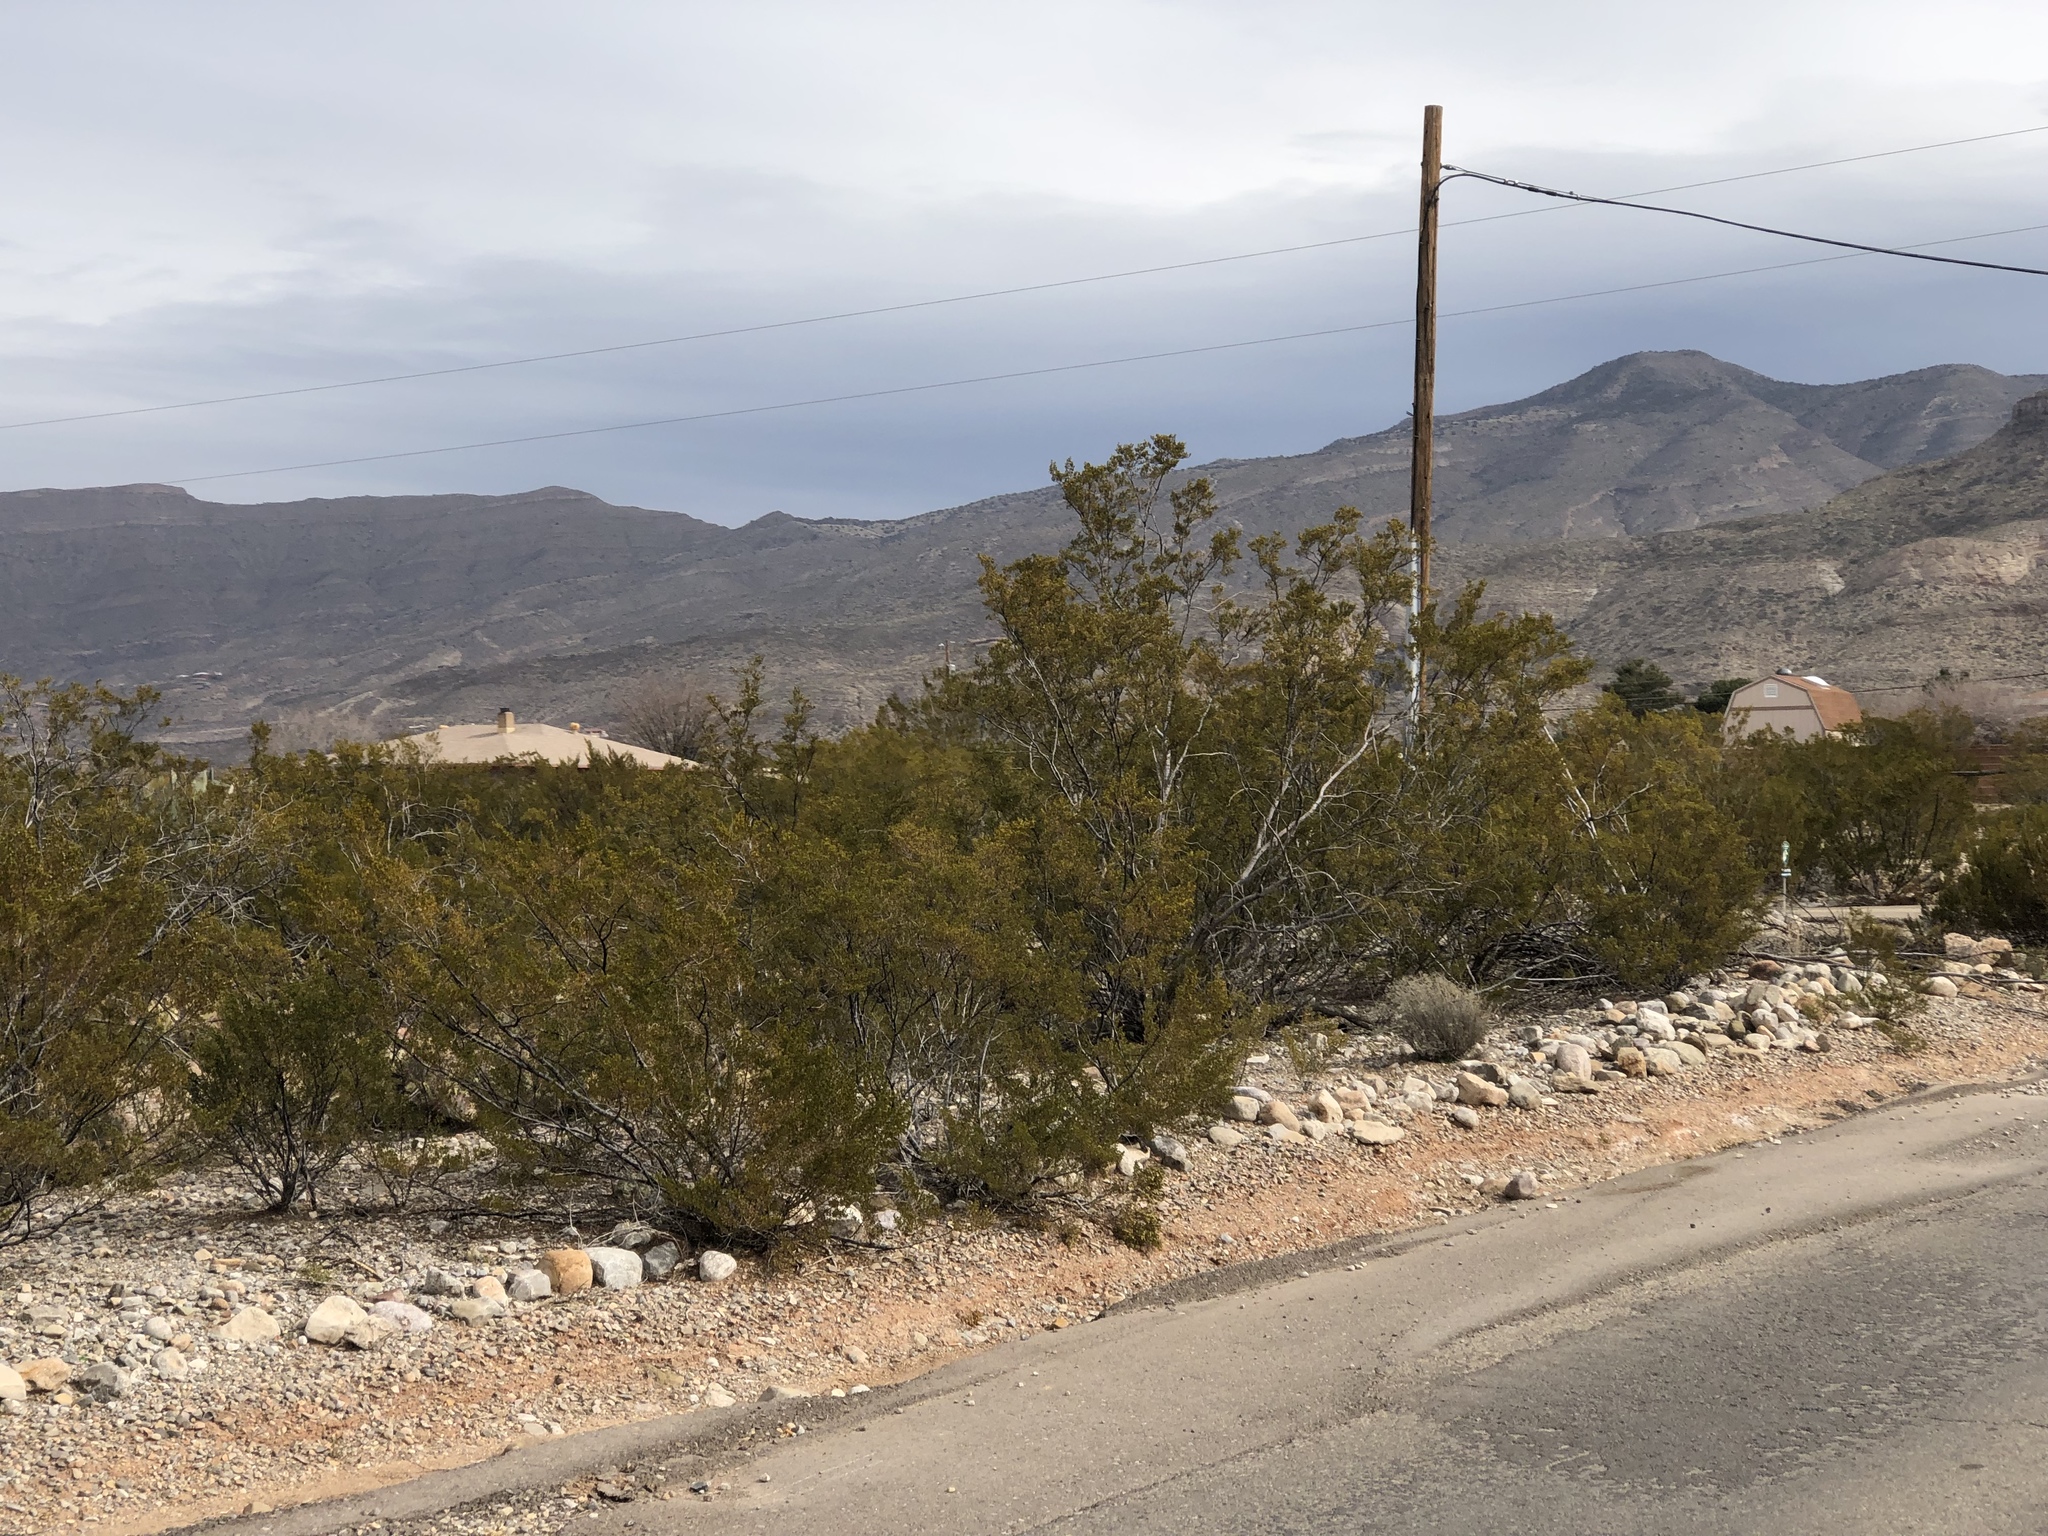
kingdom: Plantae
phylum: Tracheophyta
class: Magnoliopsida
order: Zygophyllales
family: Zygophyllaceae
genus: Larrea
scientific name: Larrea tridentata
